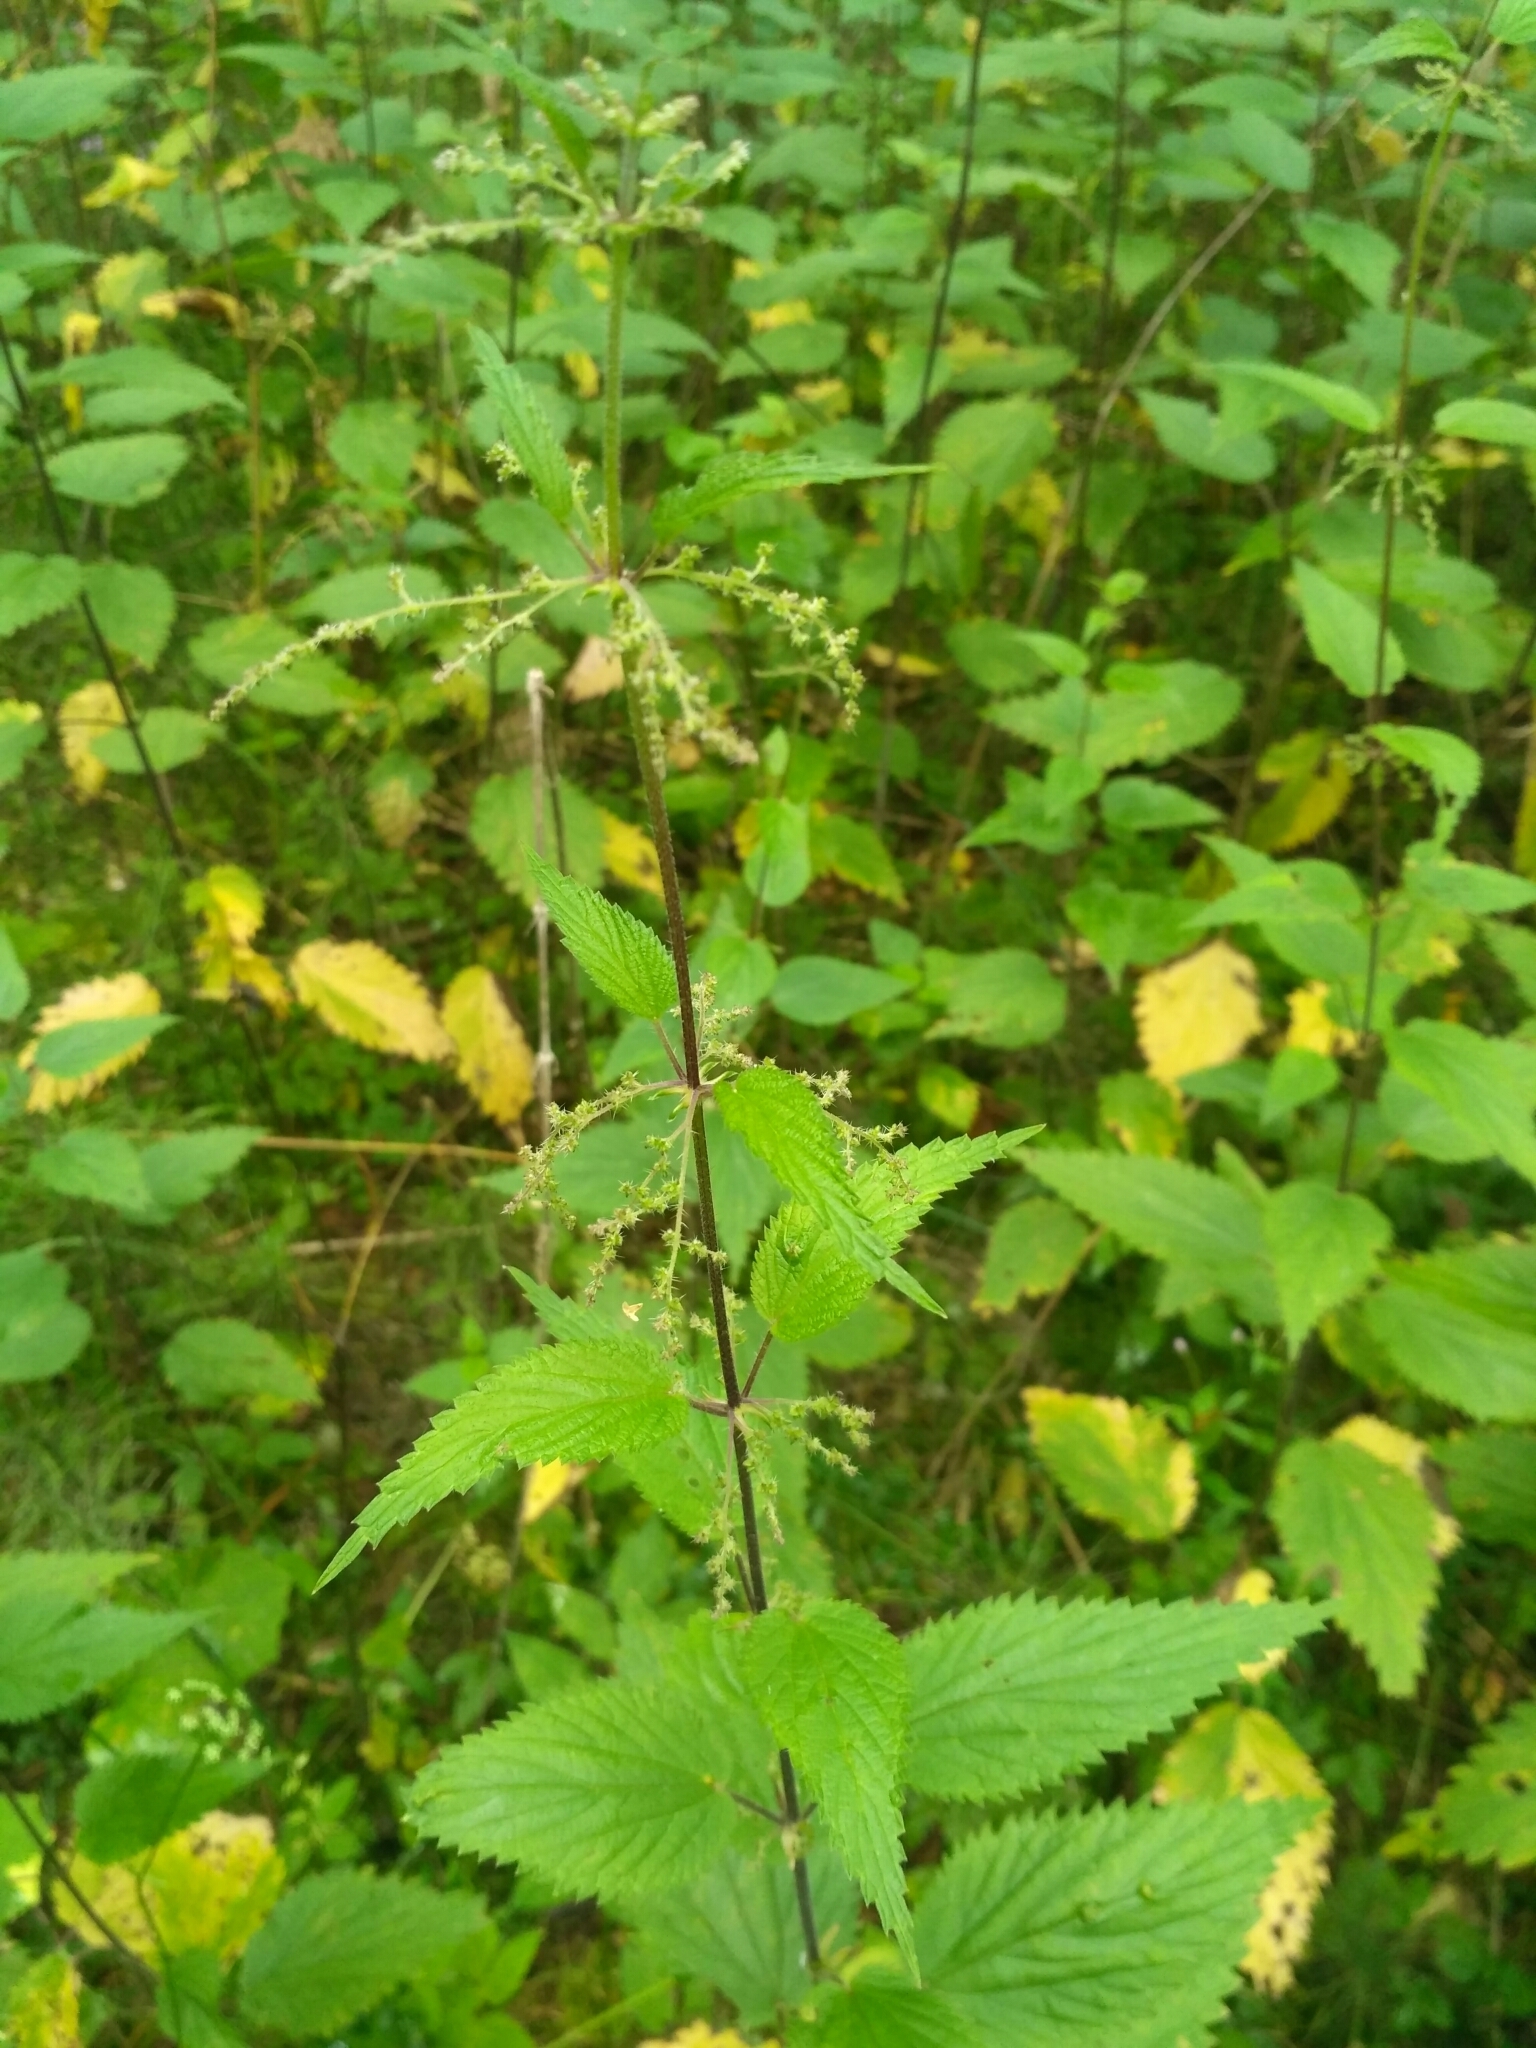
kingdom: Plantae
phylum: Tracheophyta
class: Magnoliopsida
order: Rosales
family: Urticaceae
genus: Urtica
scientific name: Urtica dioica
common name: Common nettle
